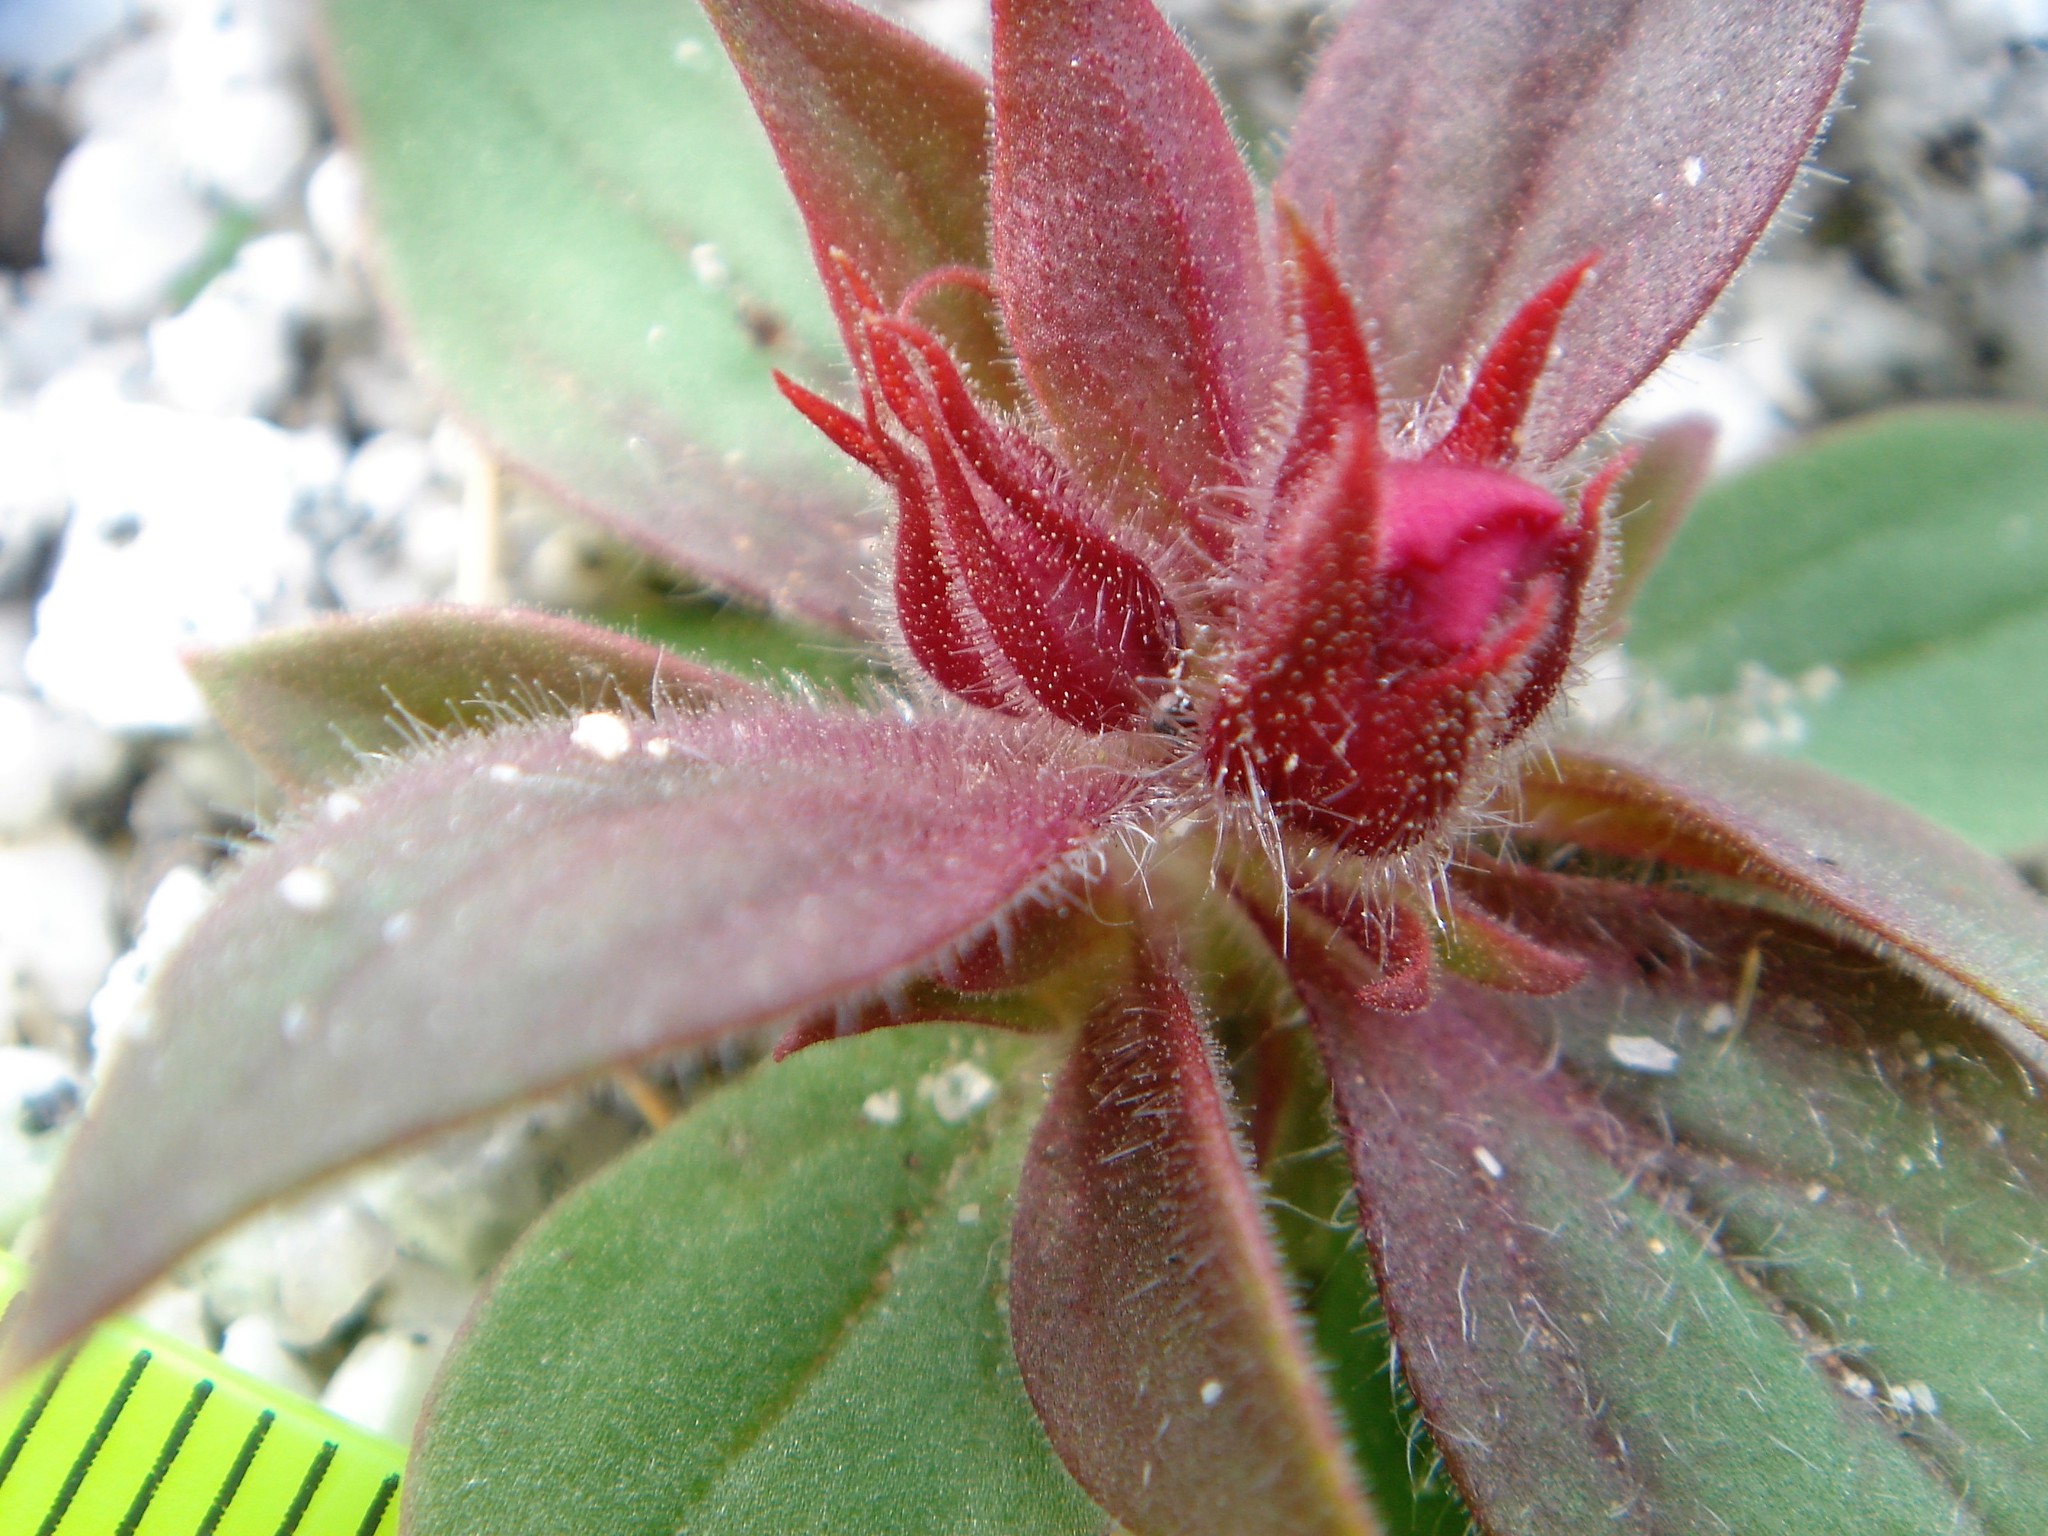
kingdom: Plantae
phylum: Tracheophyta
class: Magnoliopsida
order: Lamiales
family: Phrymaceae
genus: Diplacus
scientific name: Diplacus bigelovii
